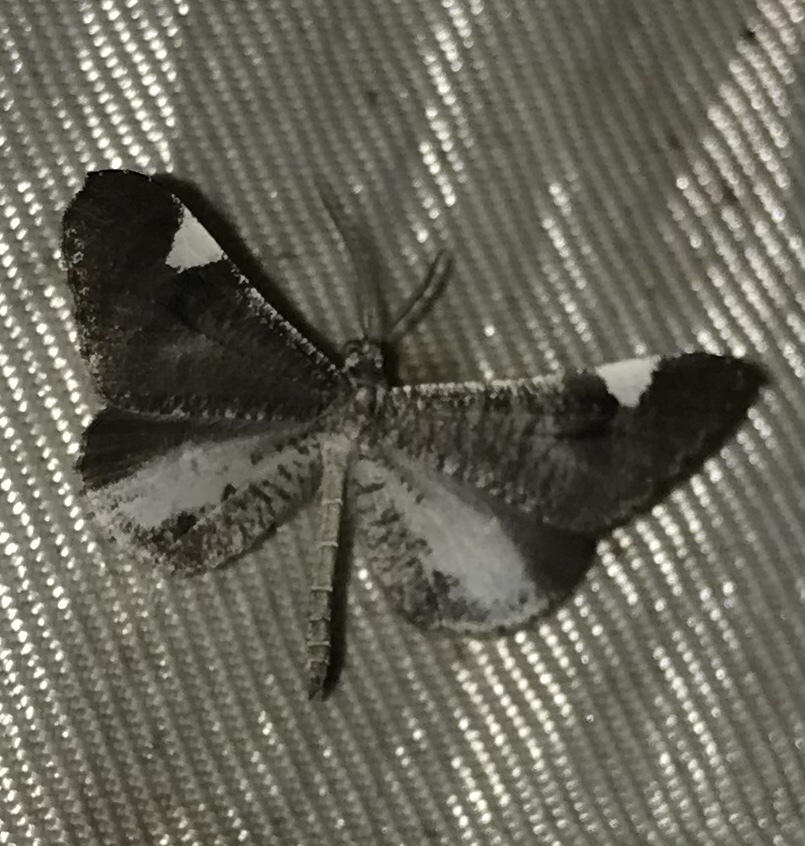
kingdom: Animalia
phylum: Arthropoda
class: Insecta
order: Lepidoptera
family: Hedylidae
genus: Macrosoma
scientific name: Macrosoma heliconiaria
